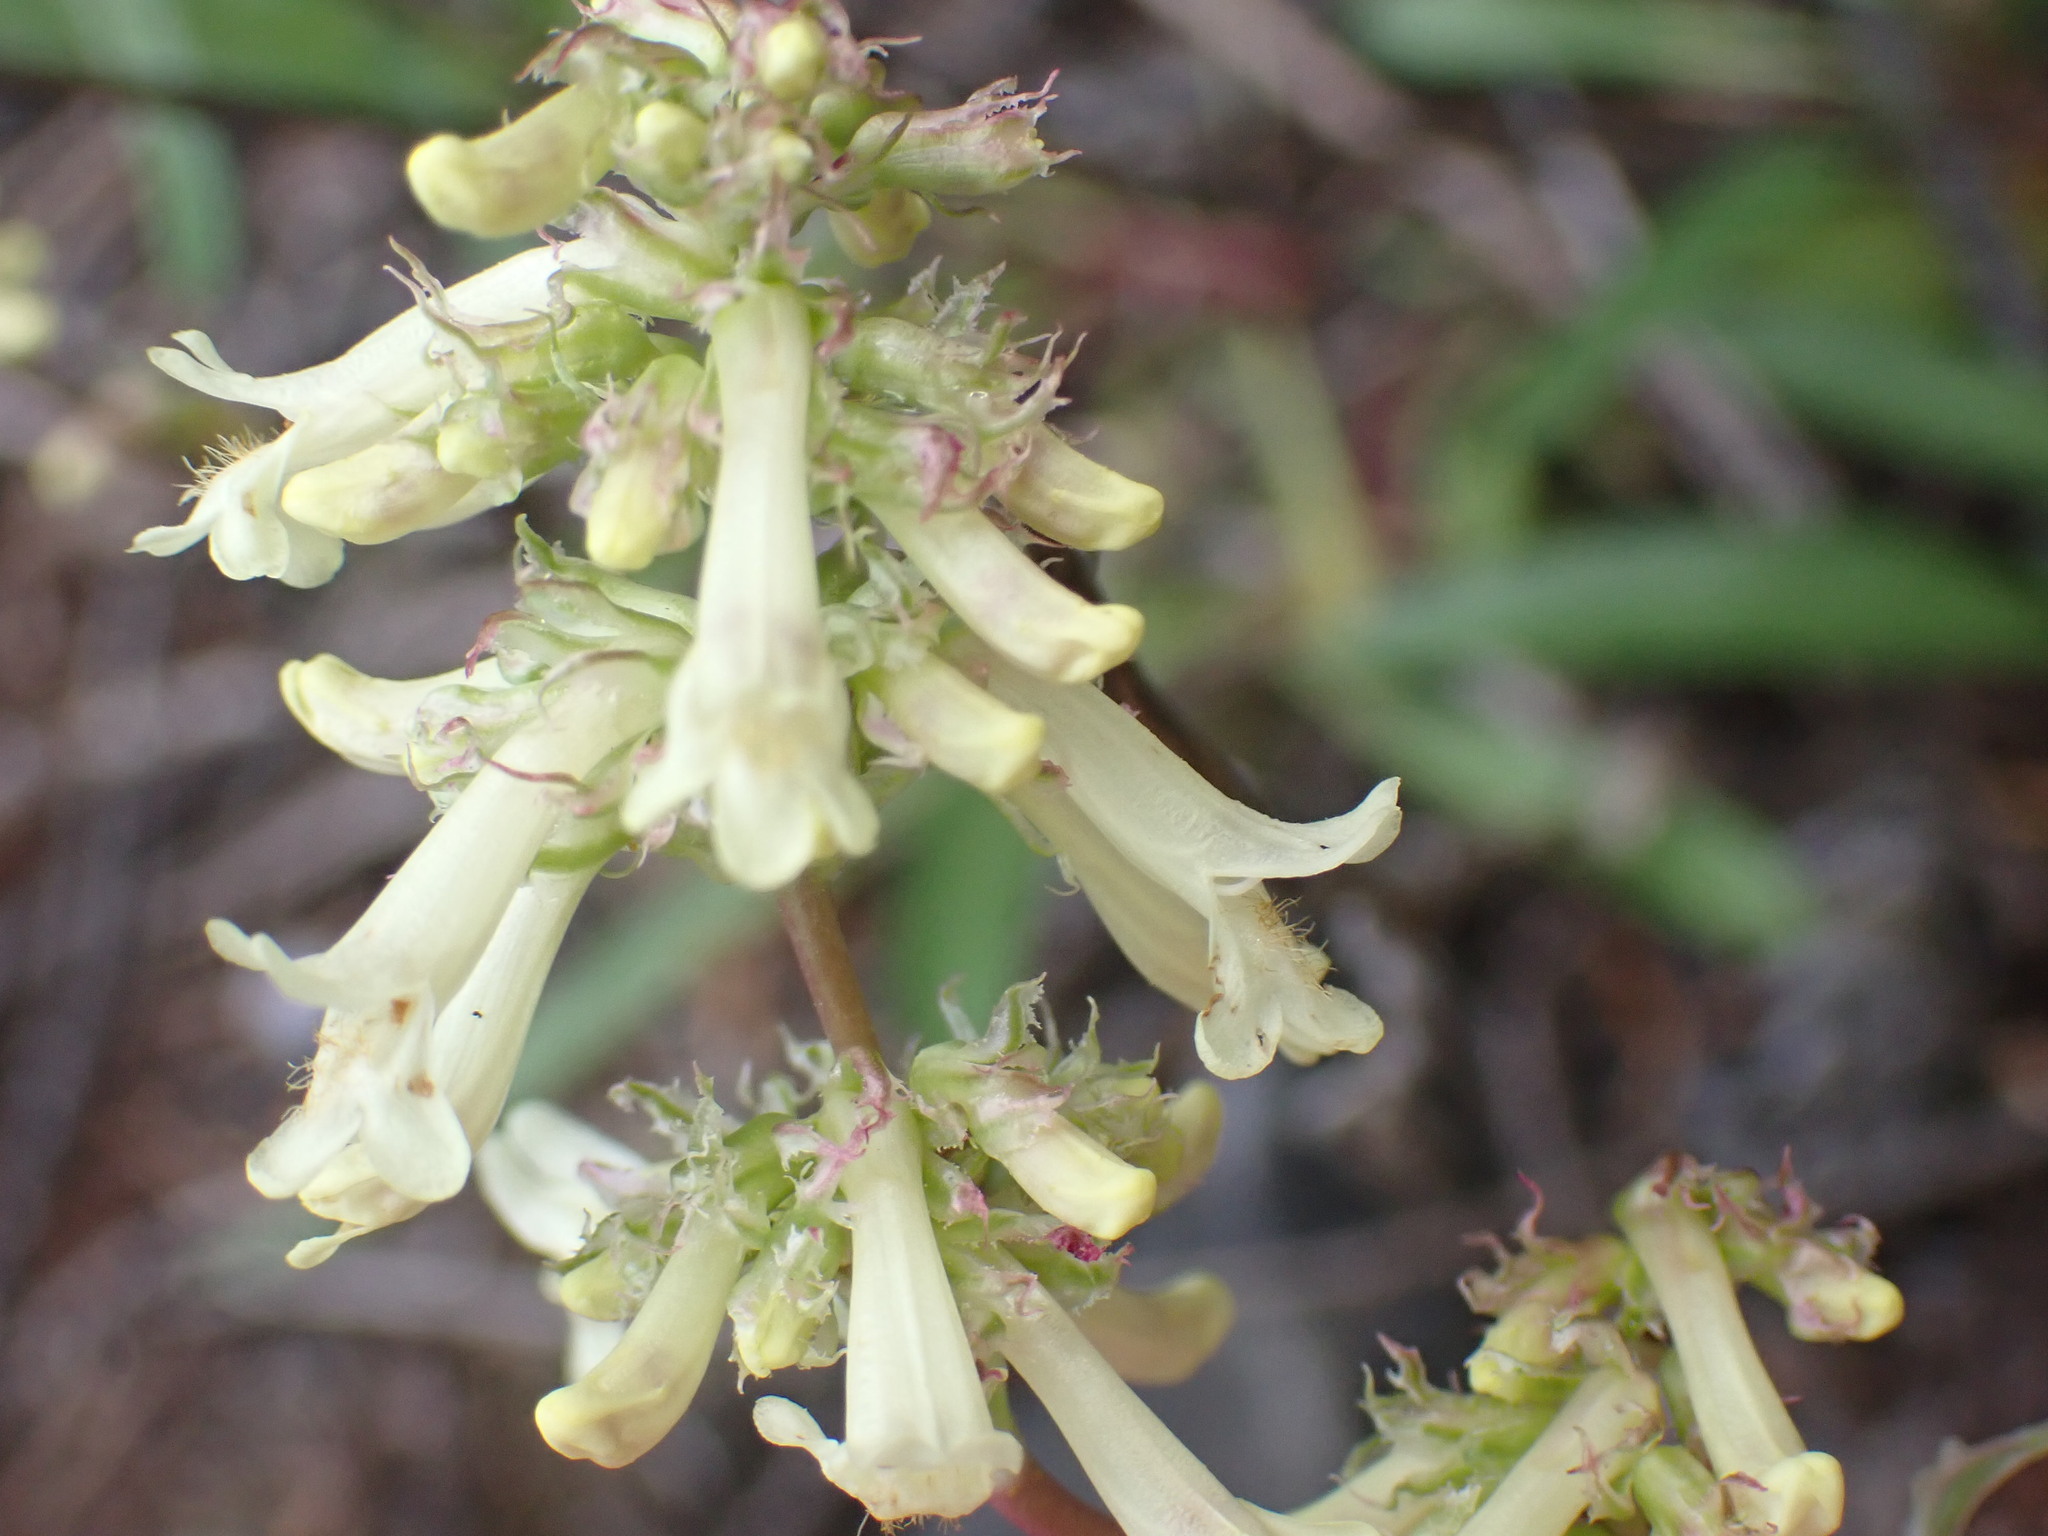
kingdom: Plantae
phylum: Tracheophyta
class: Magnoliopsida
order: Lamiales
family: Plantaginaceae
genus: Penstemon
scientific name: Penstemon confertus
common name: Lesser yellow beardtongue
